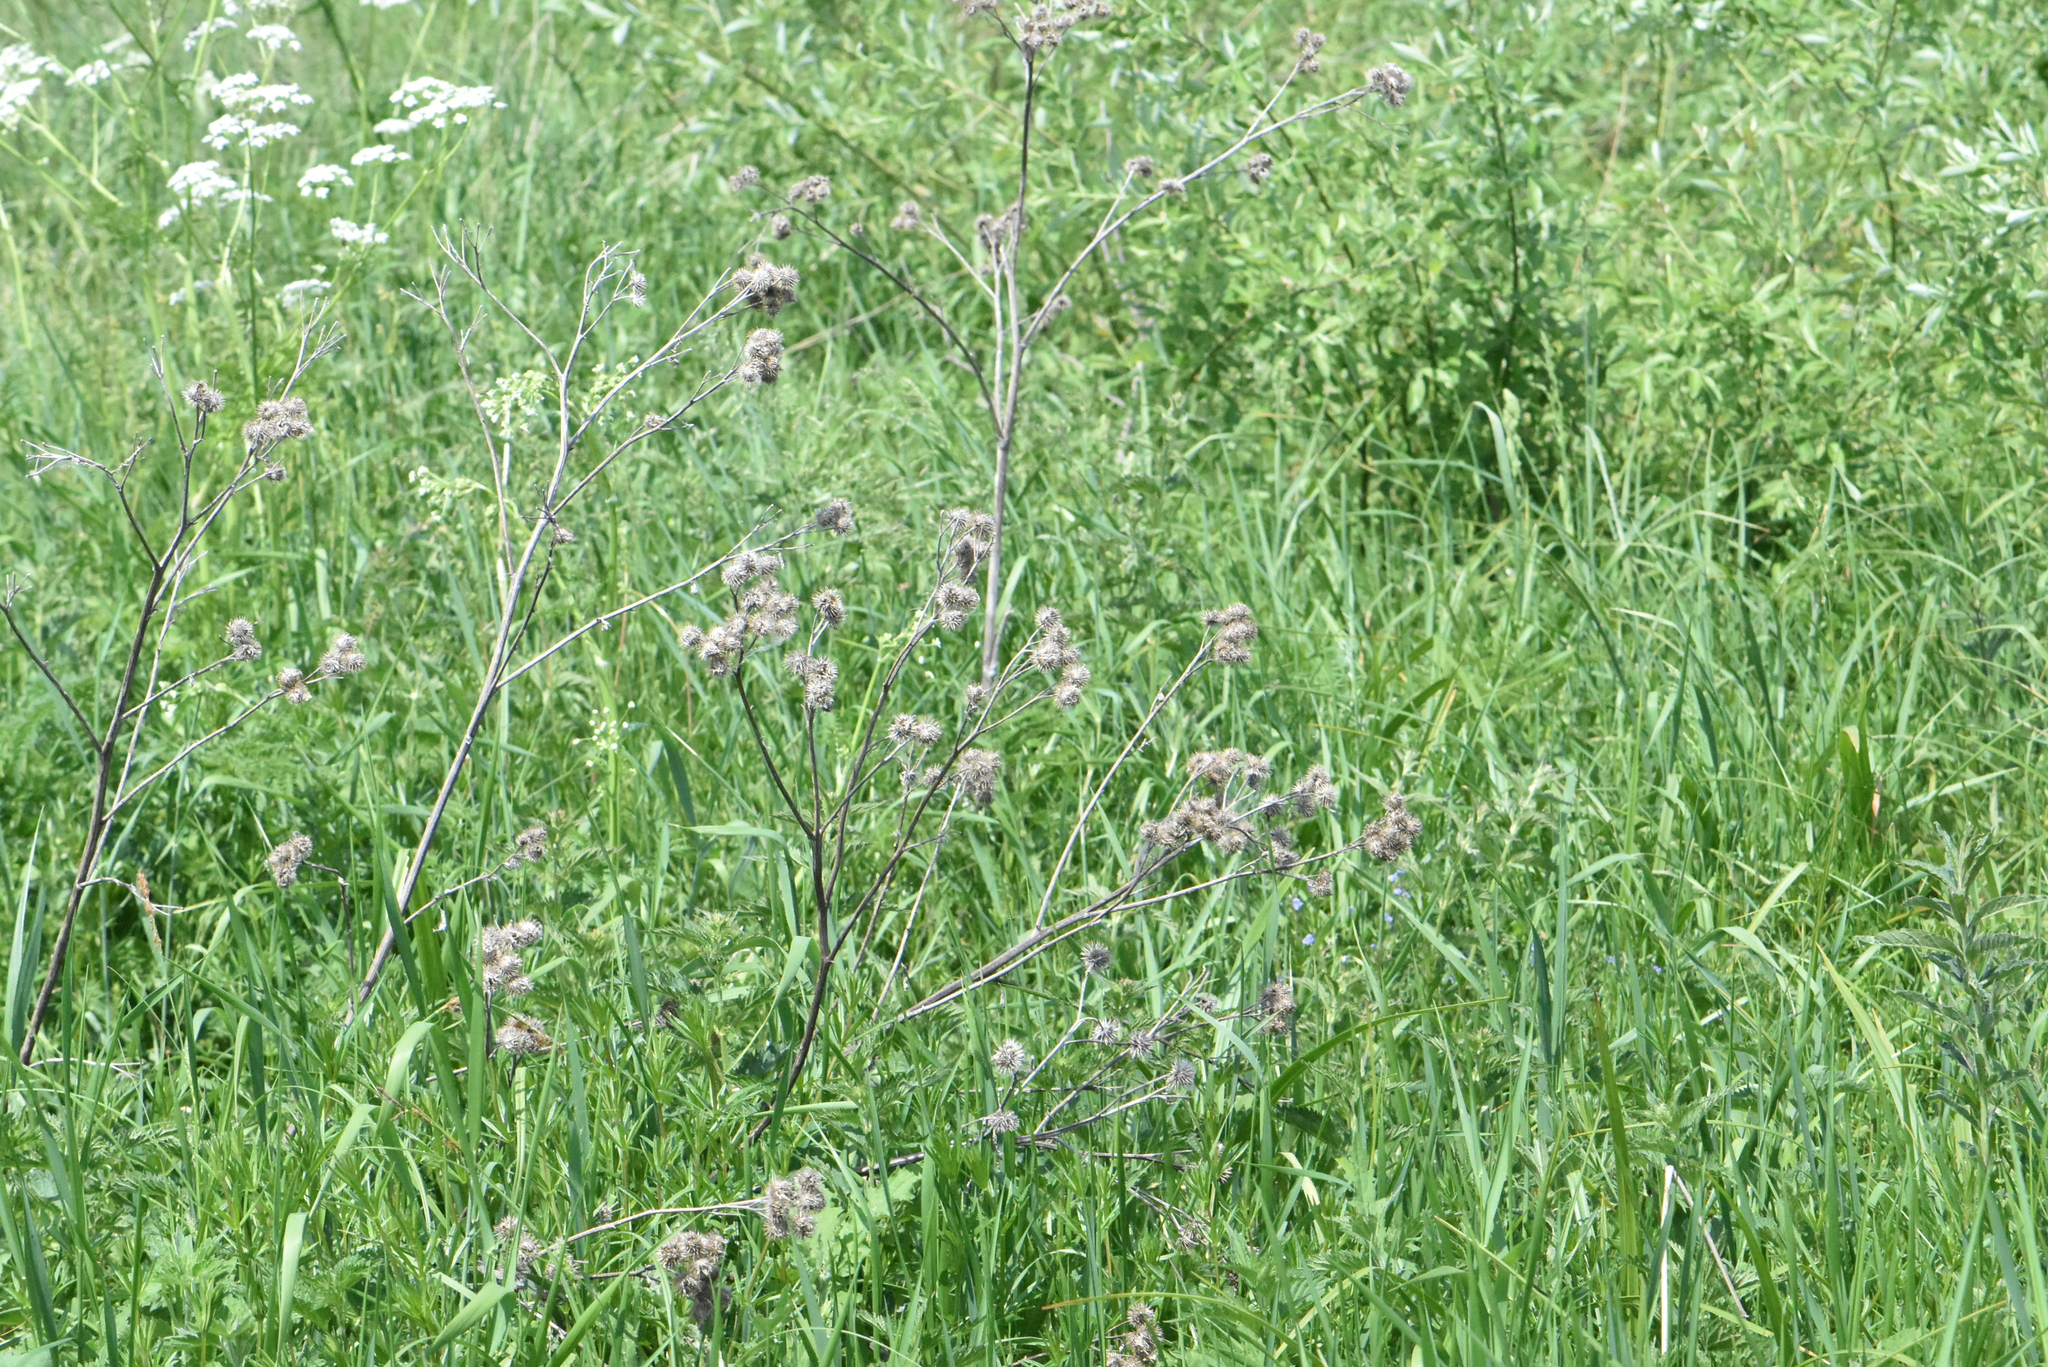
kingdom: Plantae
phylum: Tracheophyta
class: Magnoliopsida
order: Asterales
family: Asteraceae
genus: Arctium
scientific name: Arctium tomentosum
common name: Woolly burdock
